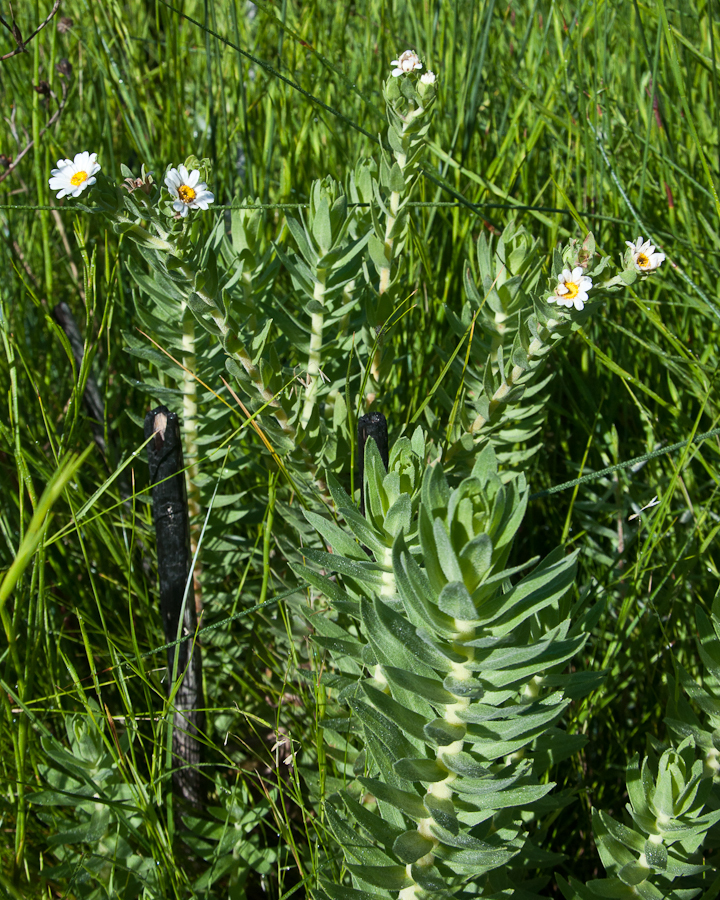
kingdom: Plantae
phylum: Tracheophyta
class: Magnoliopsida
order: Asterales
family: Asteraceae
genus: Osmitopsis
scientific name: Osmitopsis asteriscoides
